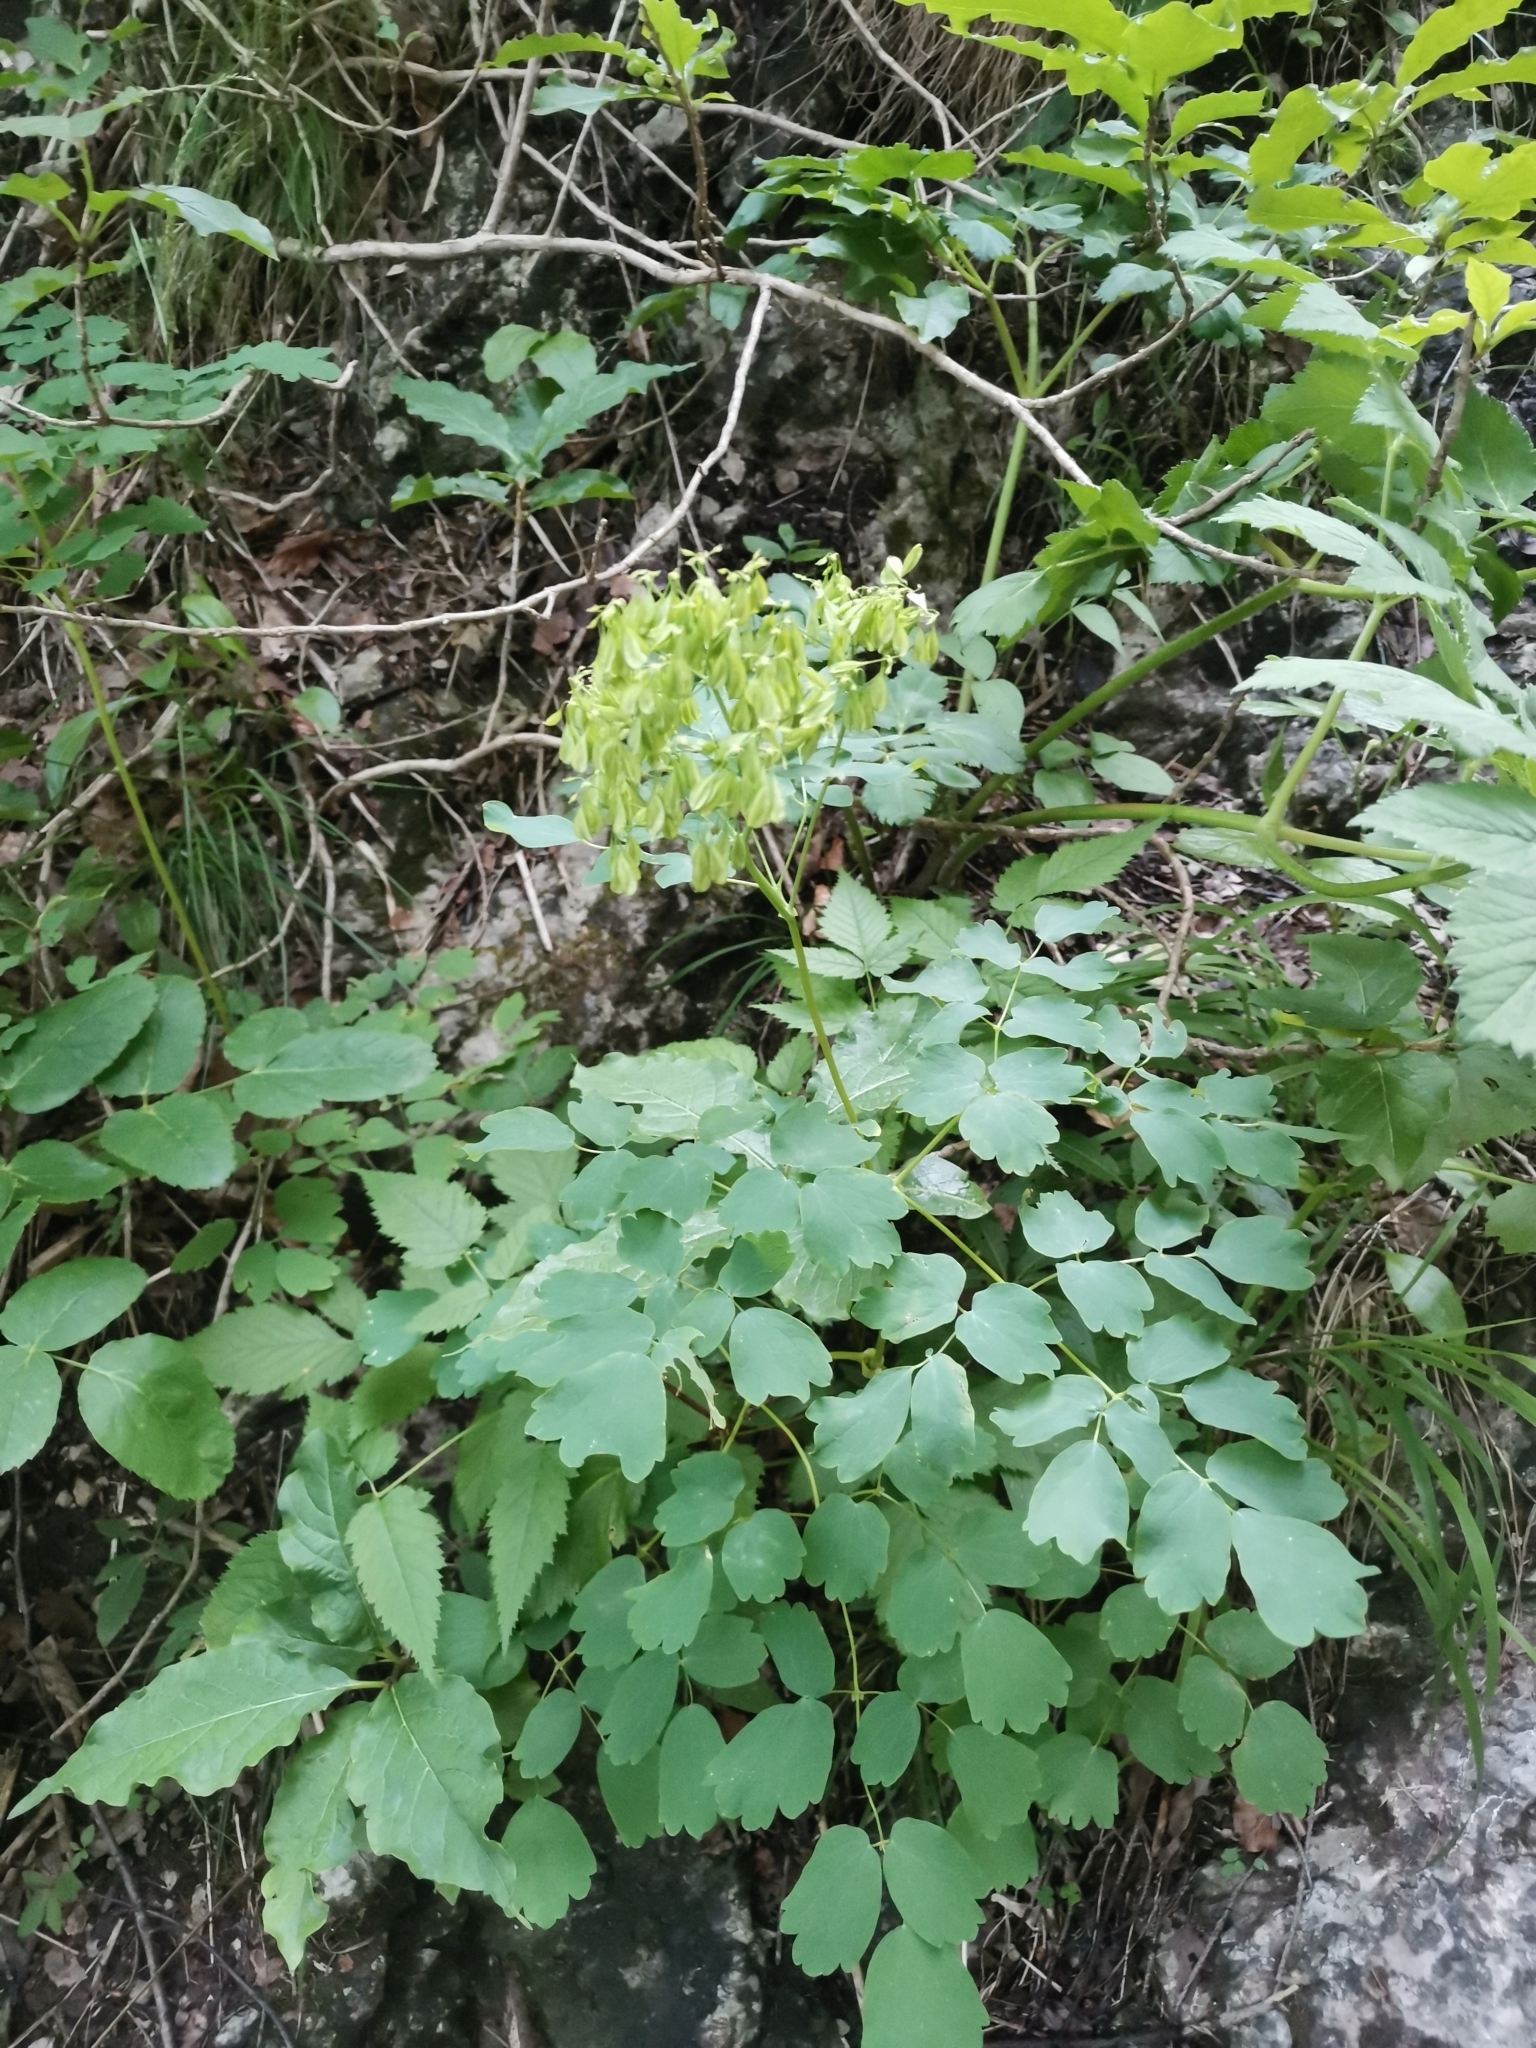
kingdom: Plantae
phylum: Tracheophyta
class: Magnoliopsida
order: Ranunculales
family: Ranunculaceae
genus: Thalictrum
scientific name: Thalictrum aquilegiifolium
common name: French meadow-rue
